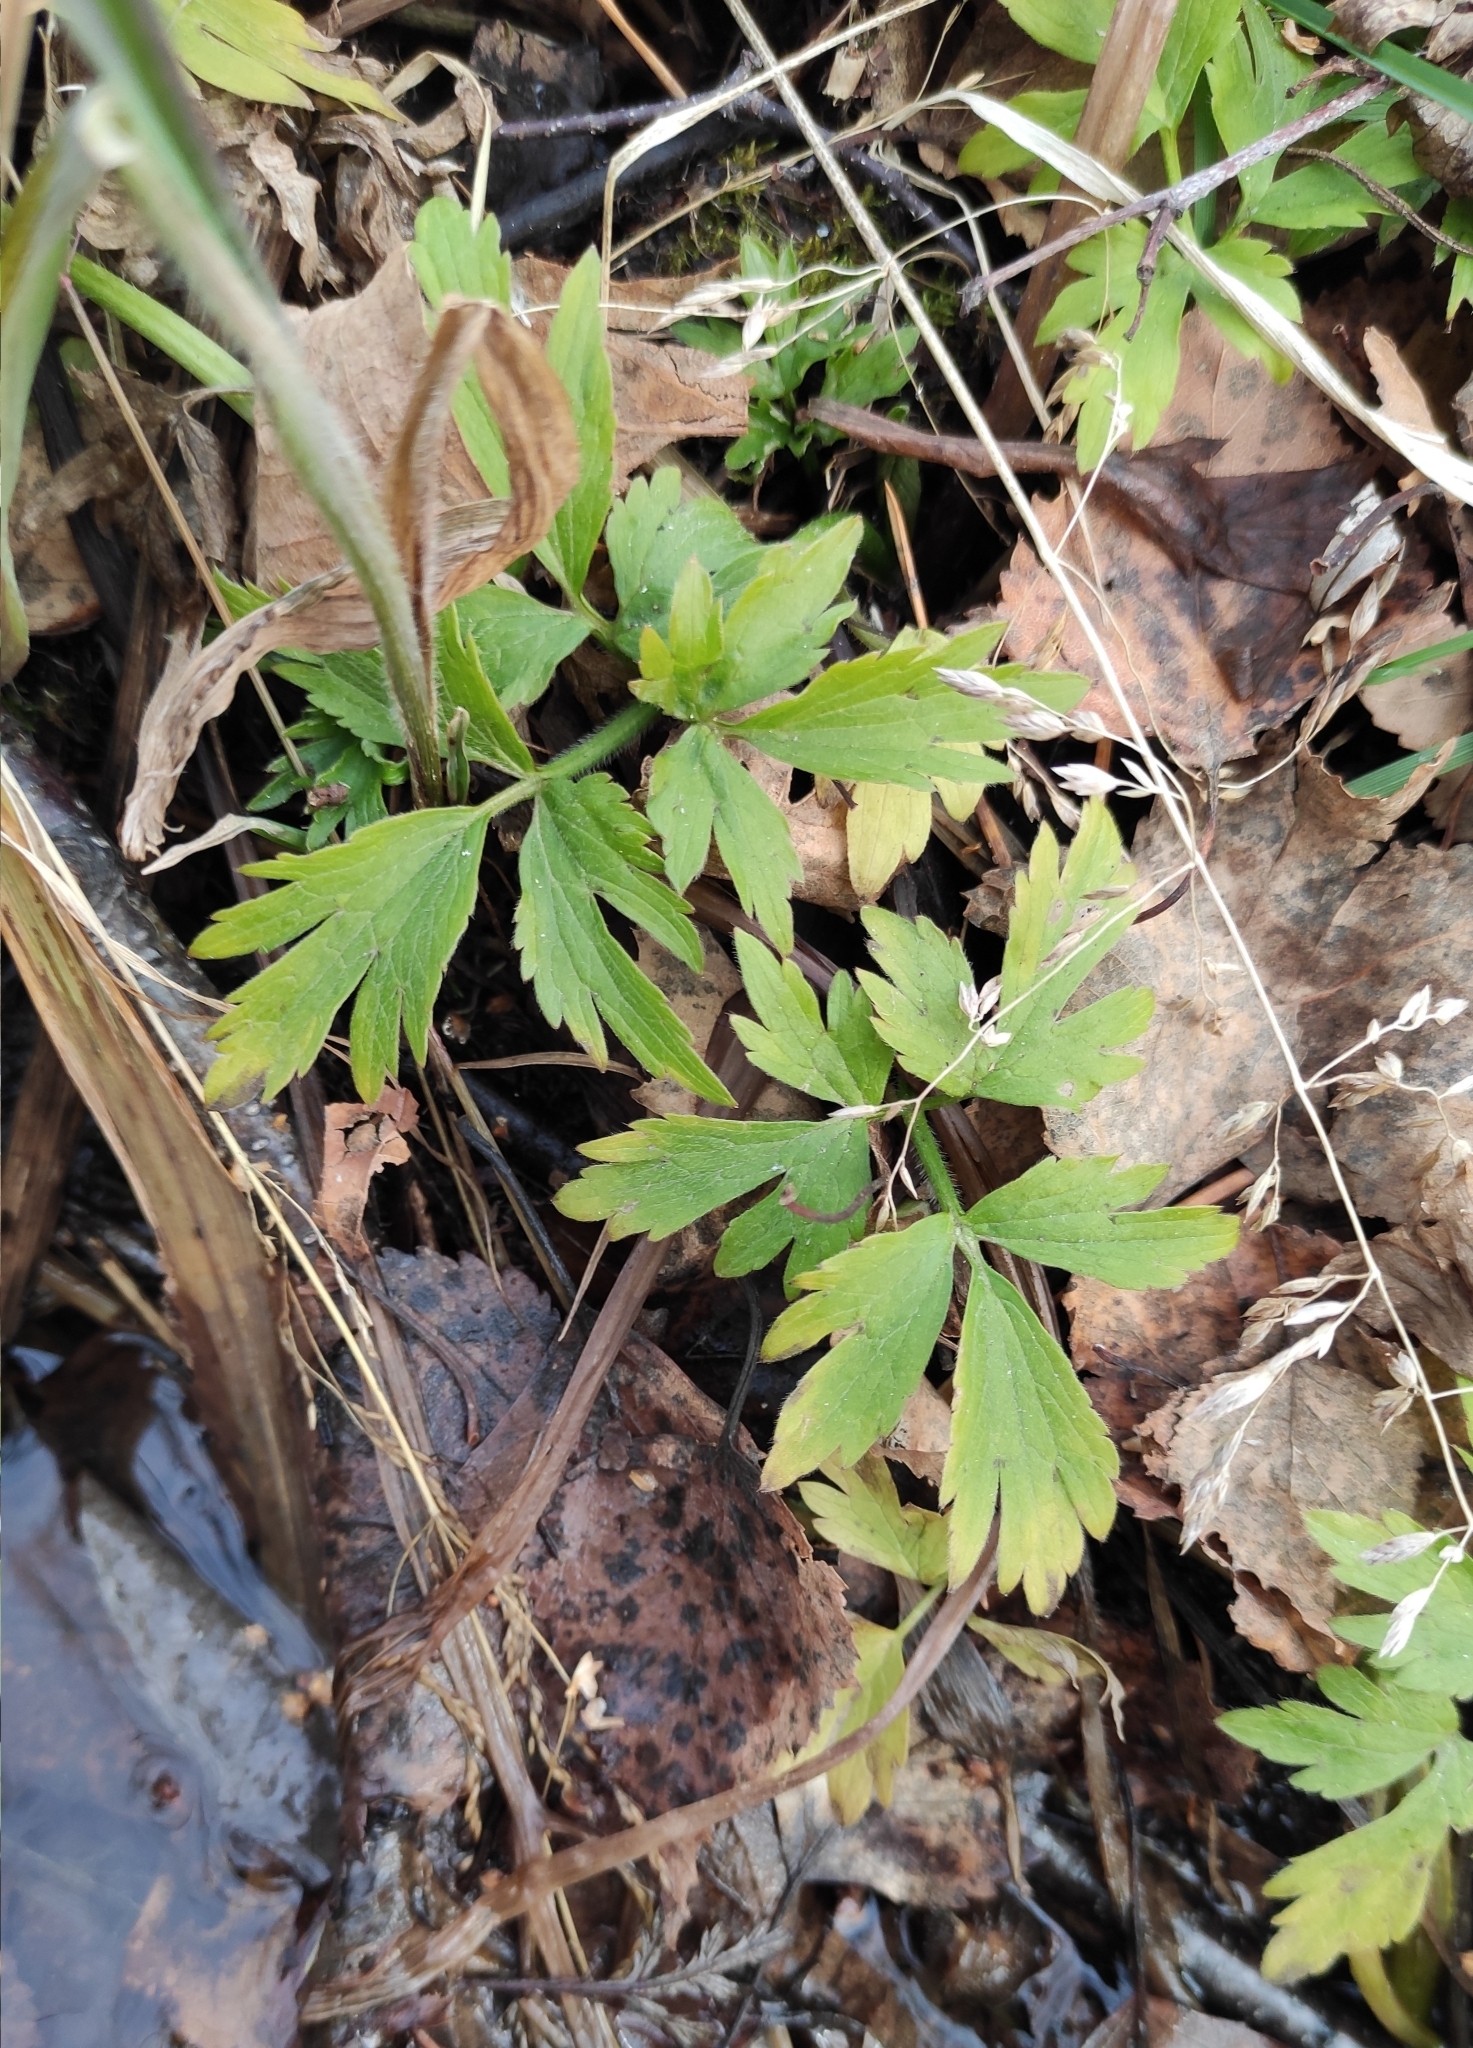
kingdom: Plantae
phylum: Tracheophyta
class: Magnoliopsida
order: Ranunculales
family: Ranunculaceae
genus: Ranunculus
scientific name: Ranunculus repens
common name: Creeping buttercup
